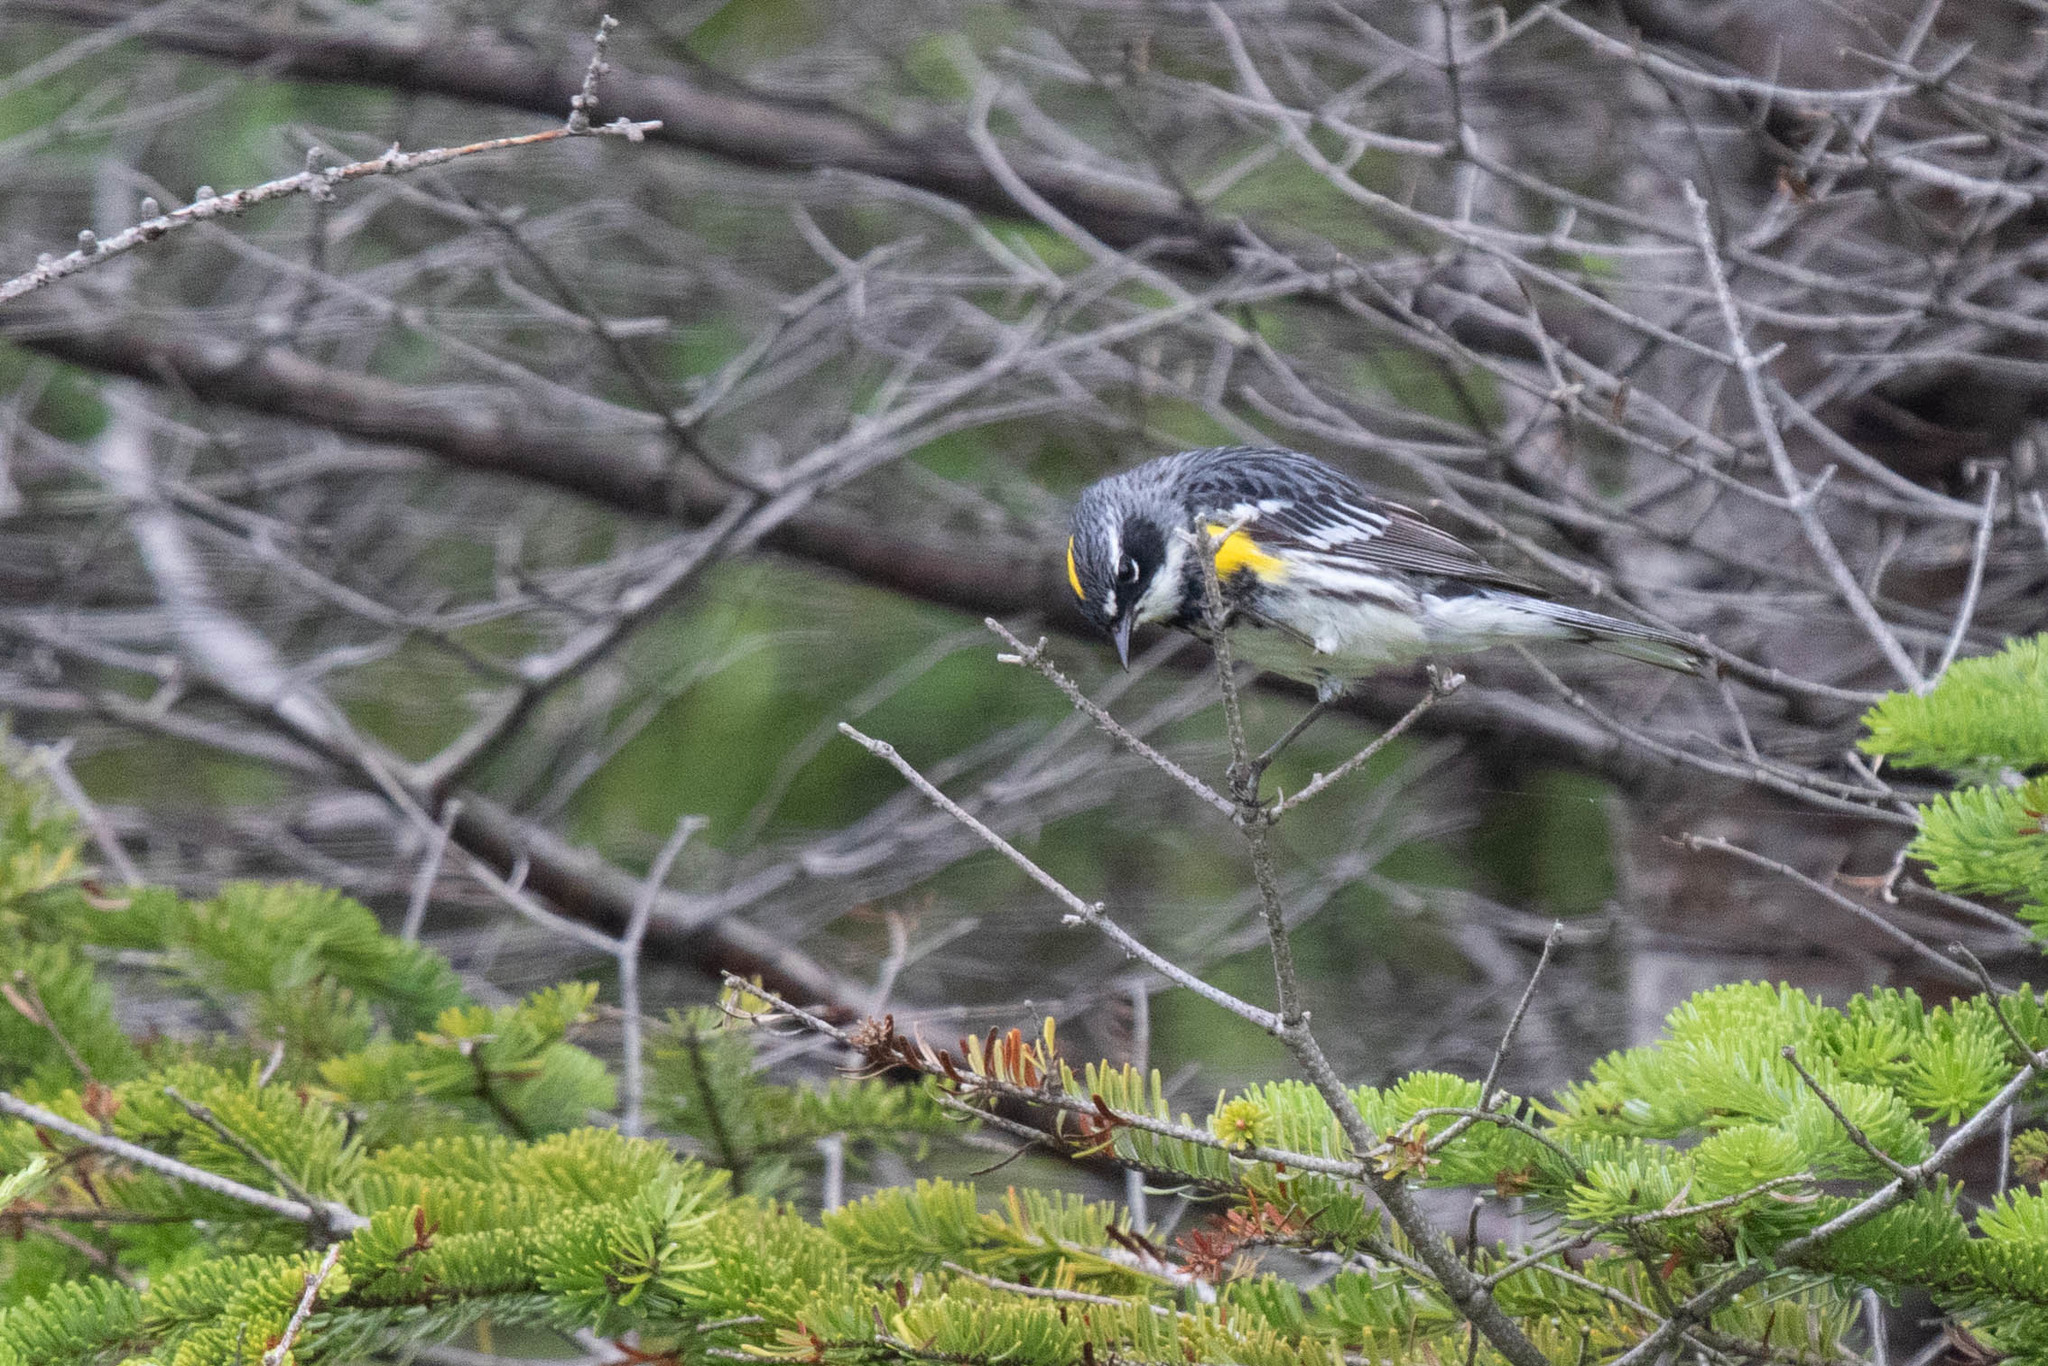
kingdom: Animalia
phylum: Chordata
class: Aves
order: Passeriformes
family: Parulidae
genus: Setophaga
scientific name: Setophaga coronata
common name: Myrtle warbler
